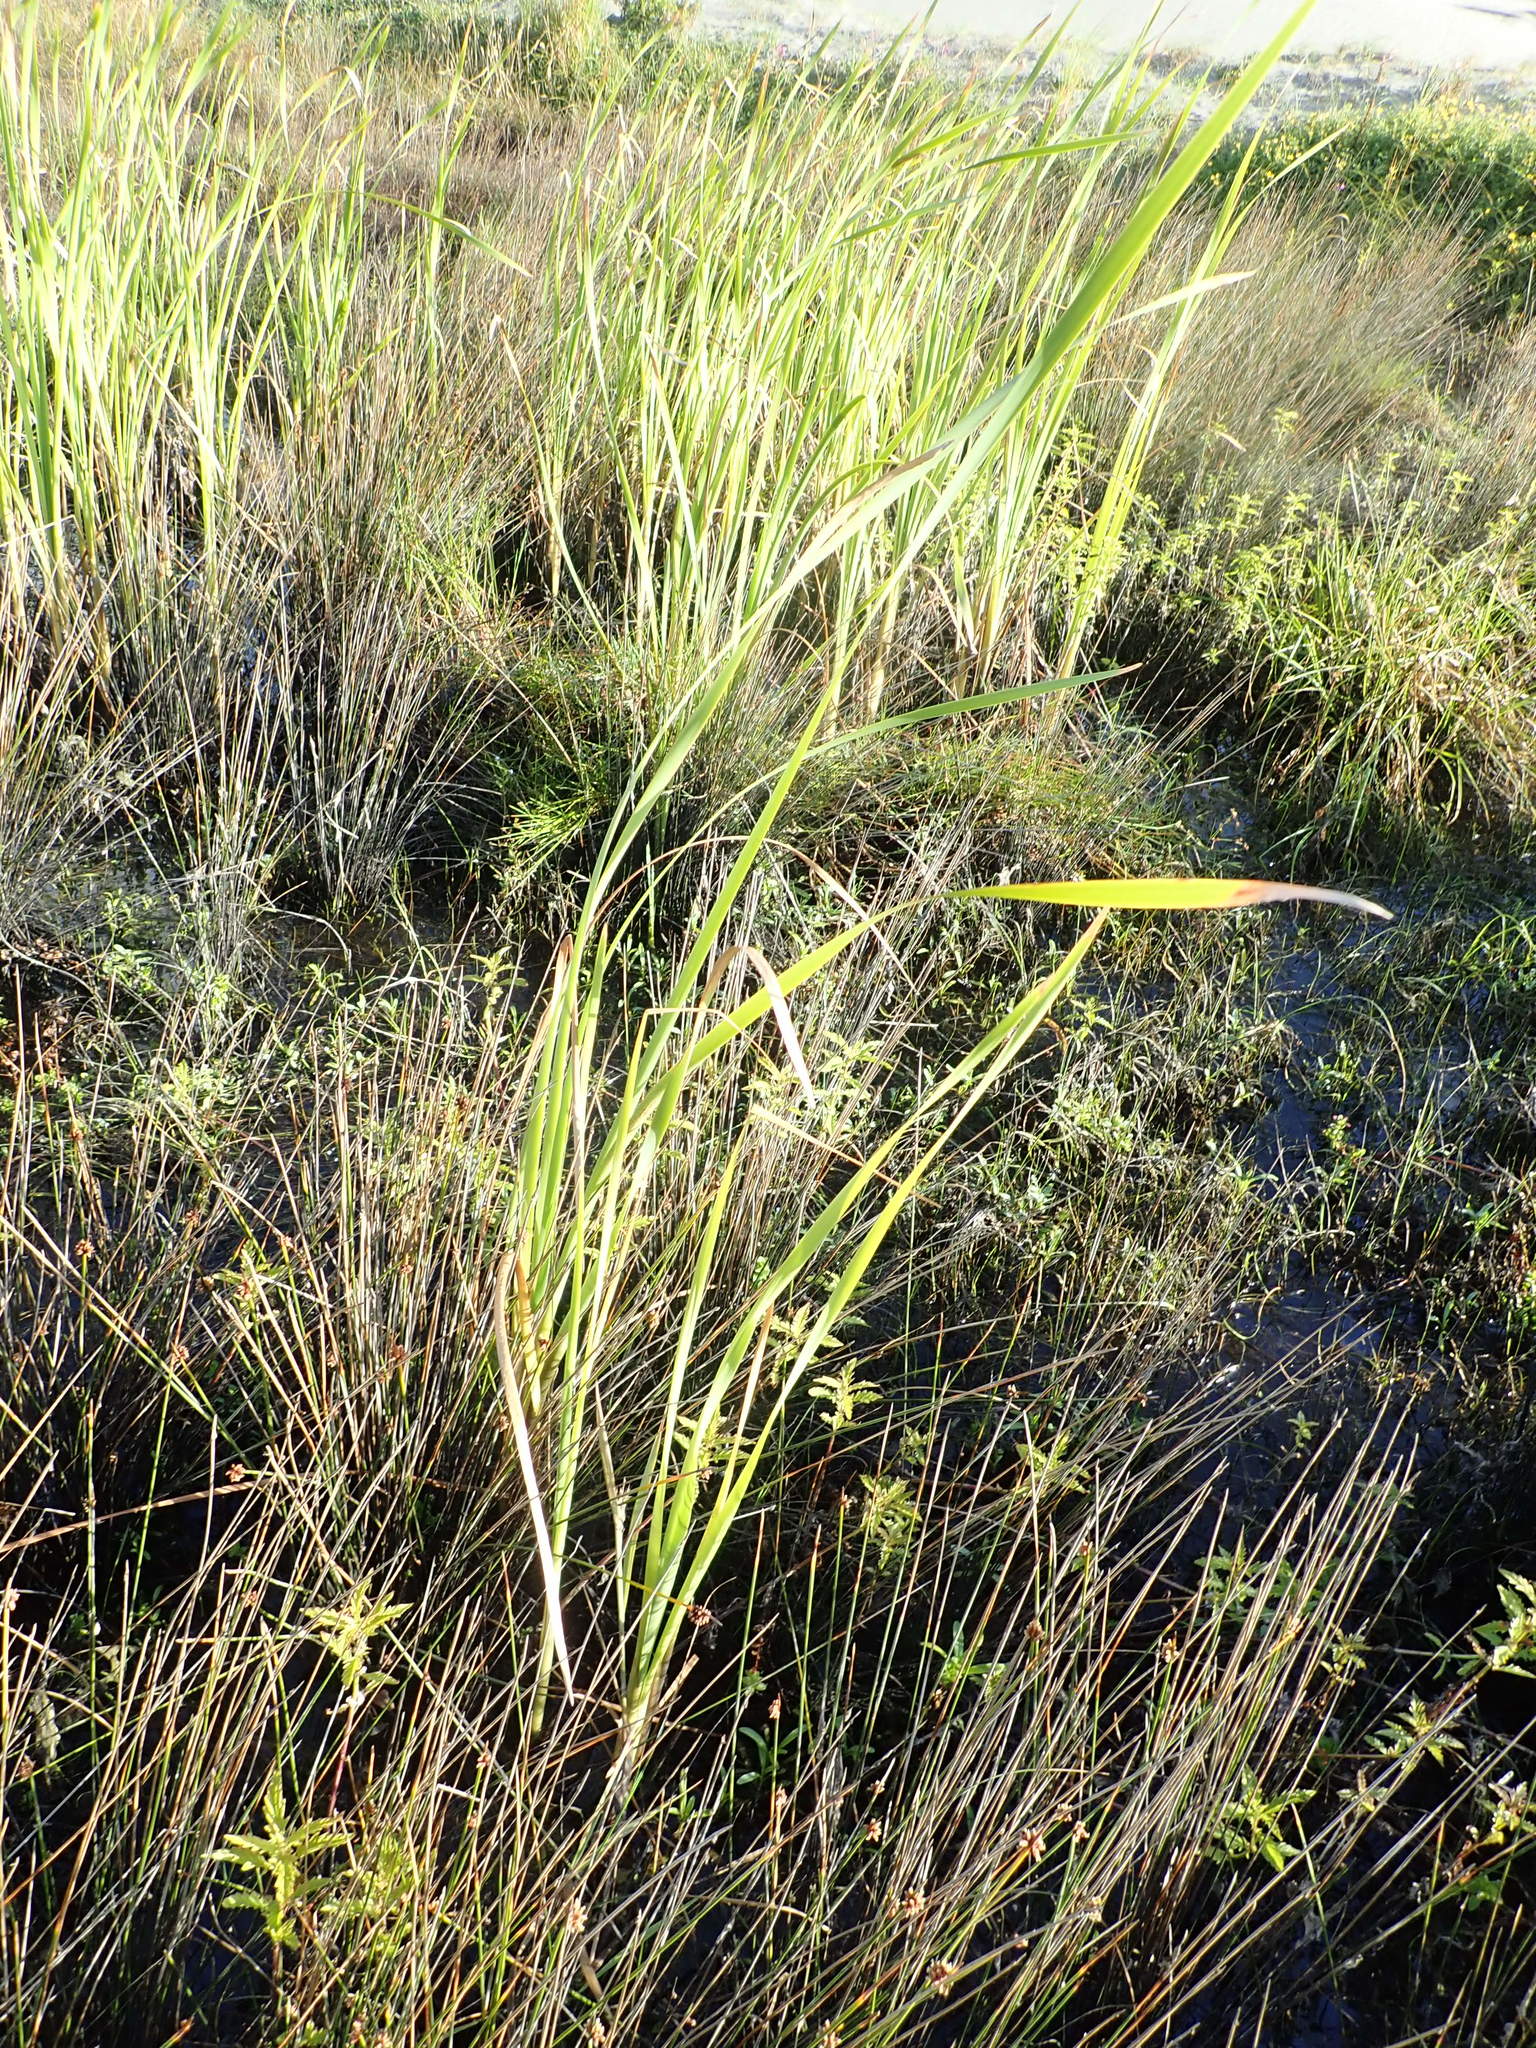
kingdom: Plantae
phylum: Tracheophyta
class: Liliopsida
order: Poales
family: Typhaceae
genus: Typha
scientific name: Typha orientalis
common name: Bullrush
